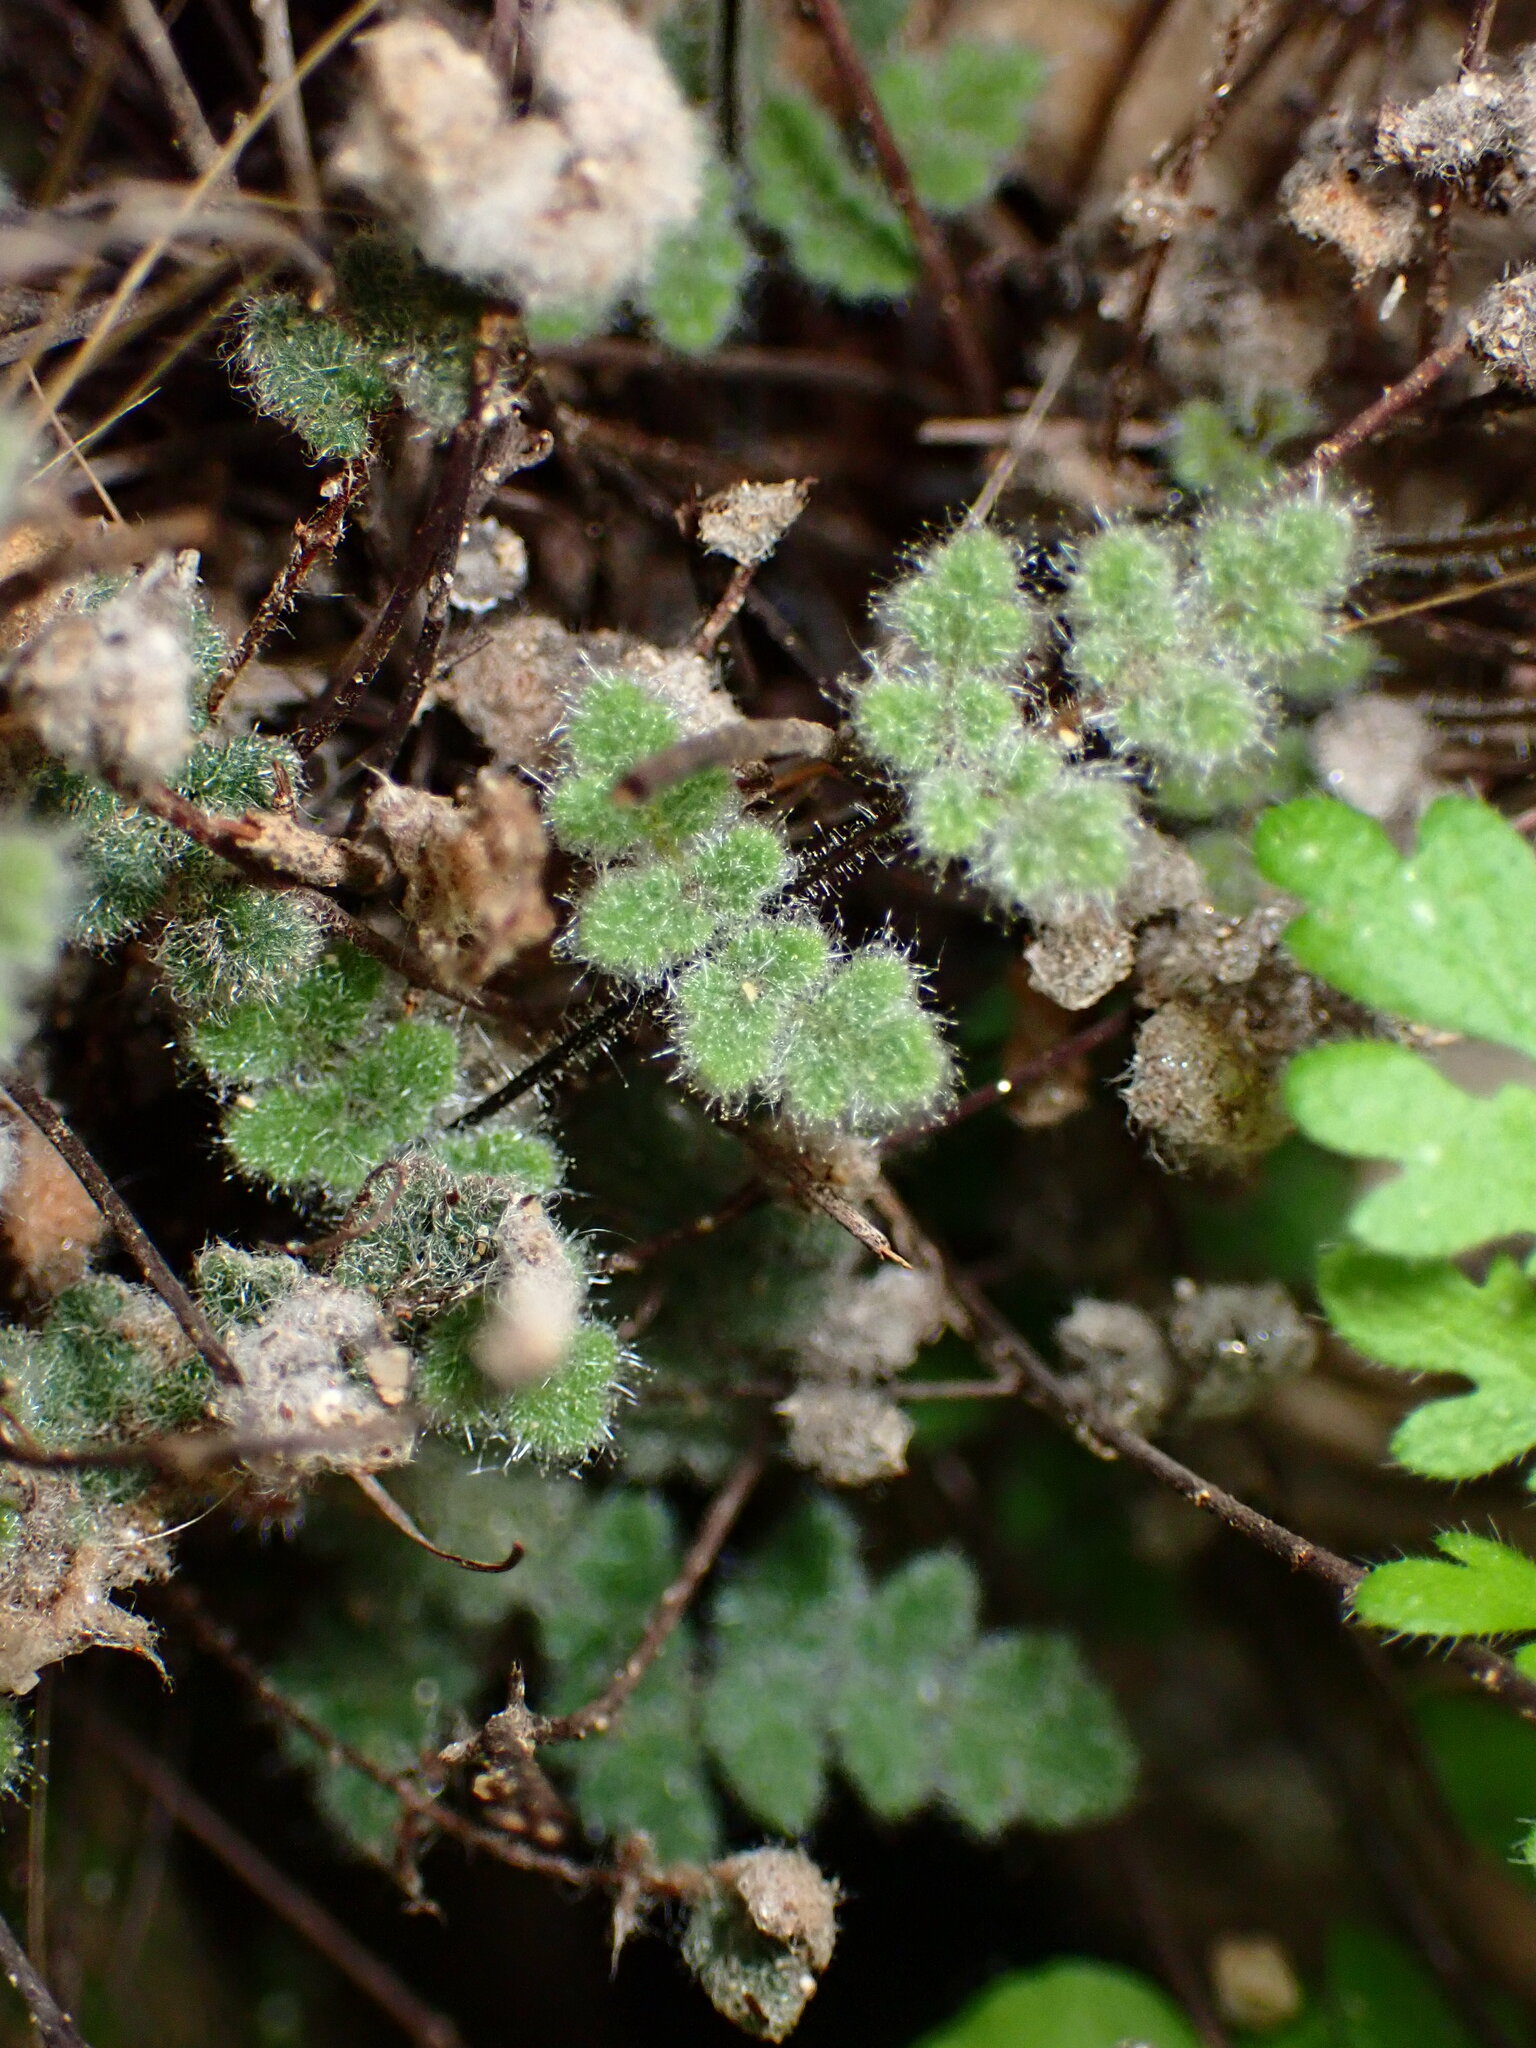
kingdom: Plantae
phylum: Tracheophyta
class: Polypodiopsida
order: Polypodiales
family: Pteridaceae
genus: Myriopteris
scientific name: Myriopteris parryi
